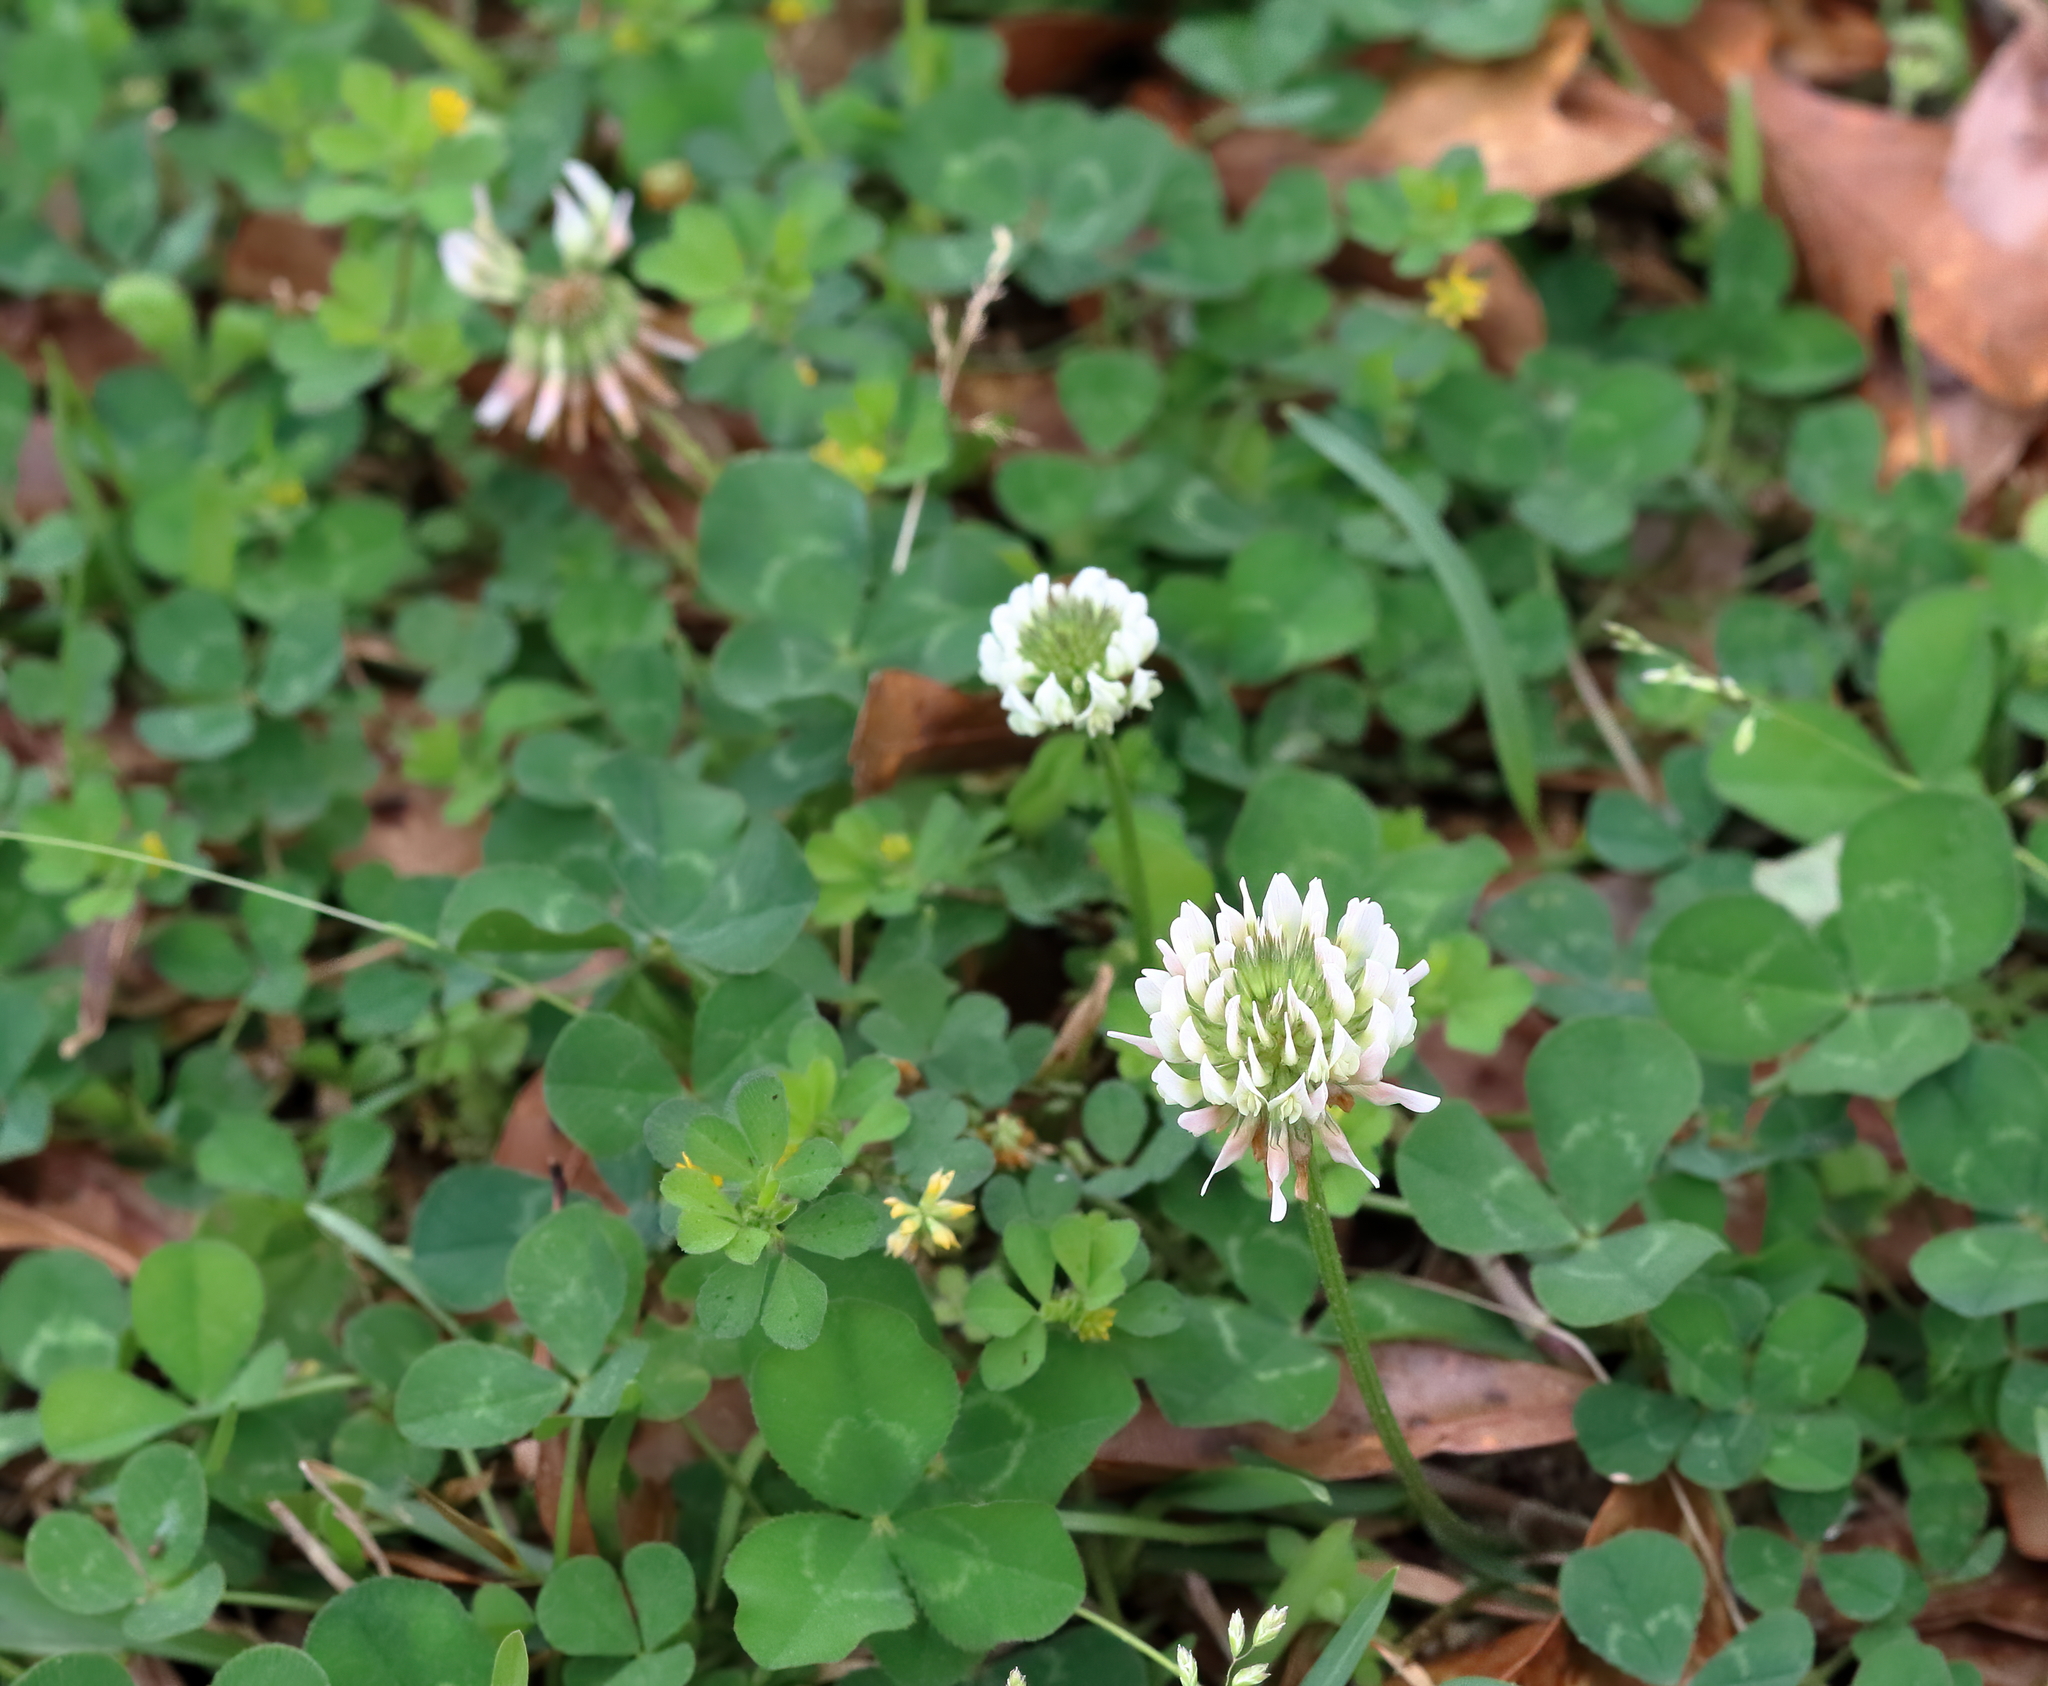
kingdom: Plantae
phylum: Tracheophyta
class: Magnoliopsida
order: Fabales
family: Fabaceae
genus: Trifolium
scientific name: Trifolium repens
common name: White clover
